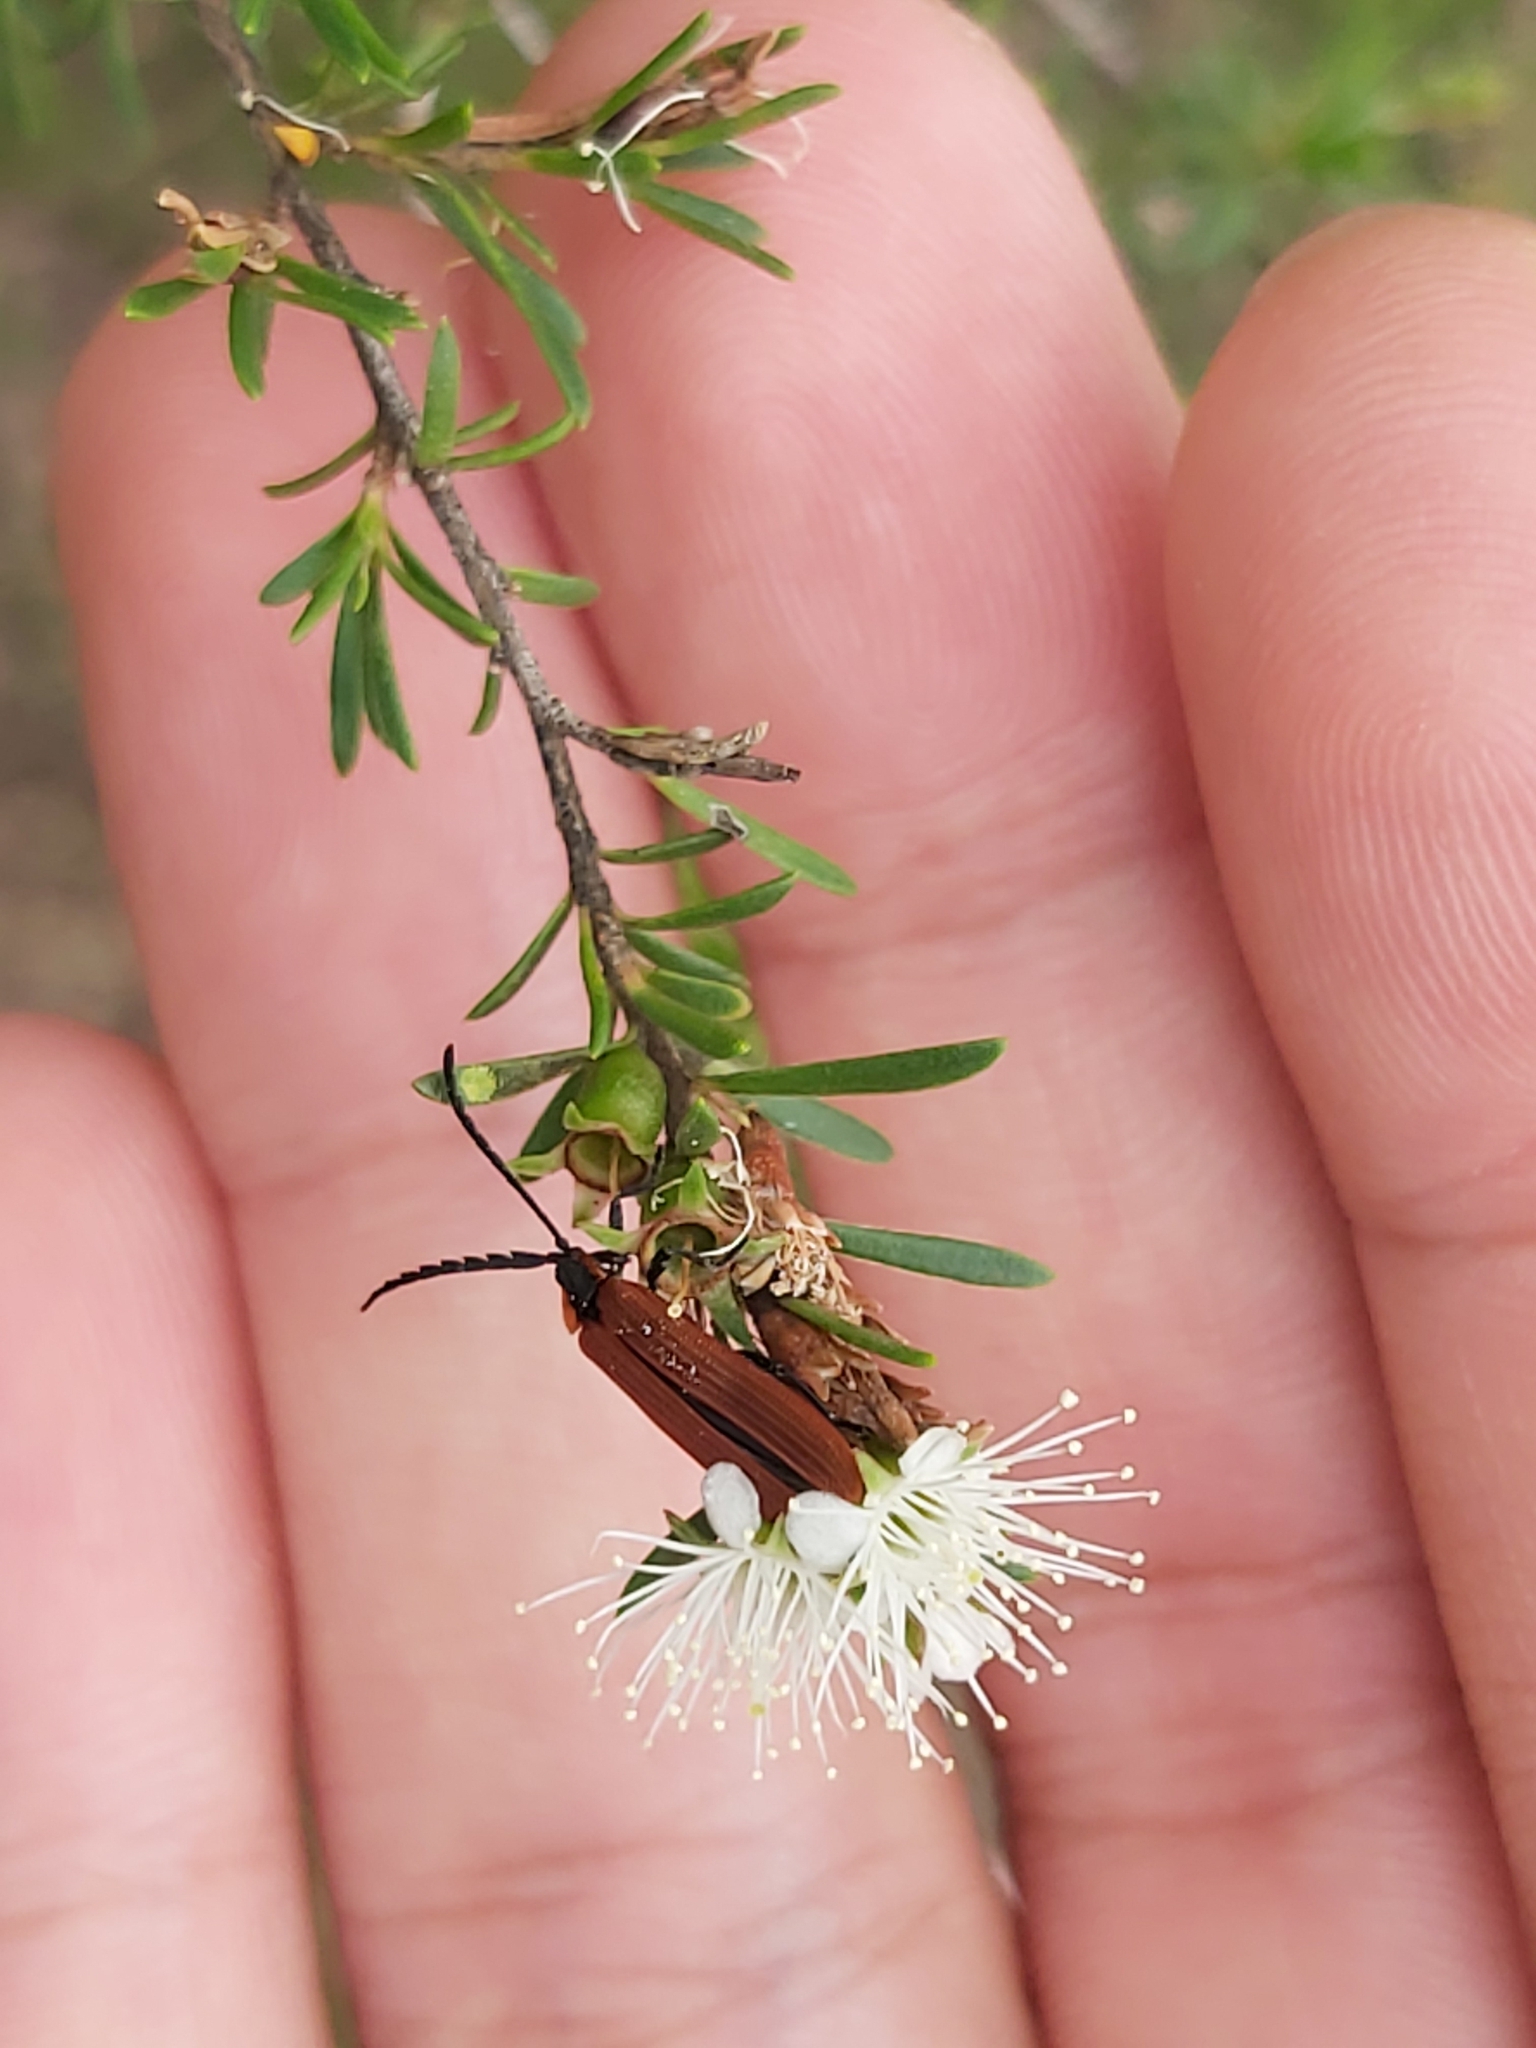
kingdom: Plantae
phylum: Tracheophyta
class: Magnoliopsida
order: Myrtales
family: Myrtaceae
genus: Kunzea
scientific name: Kunzea ambigua
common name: Tickbush
